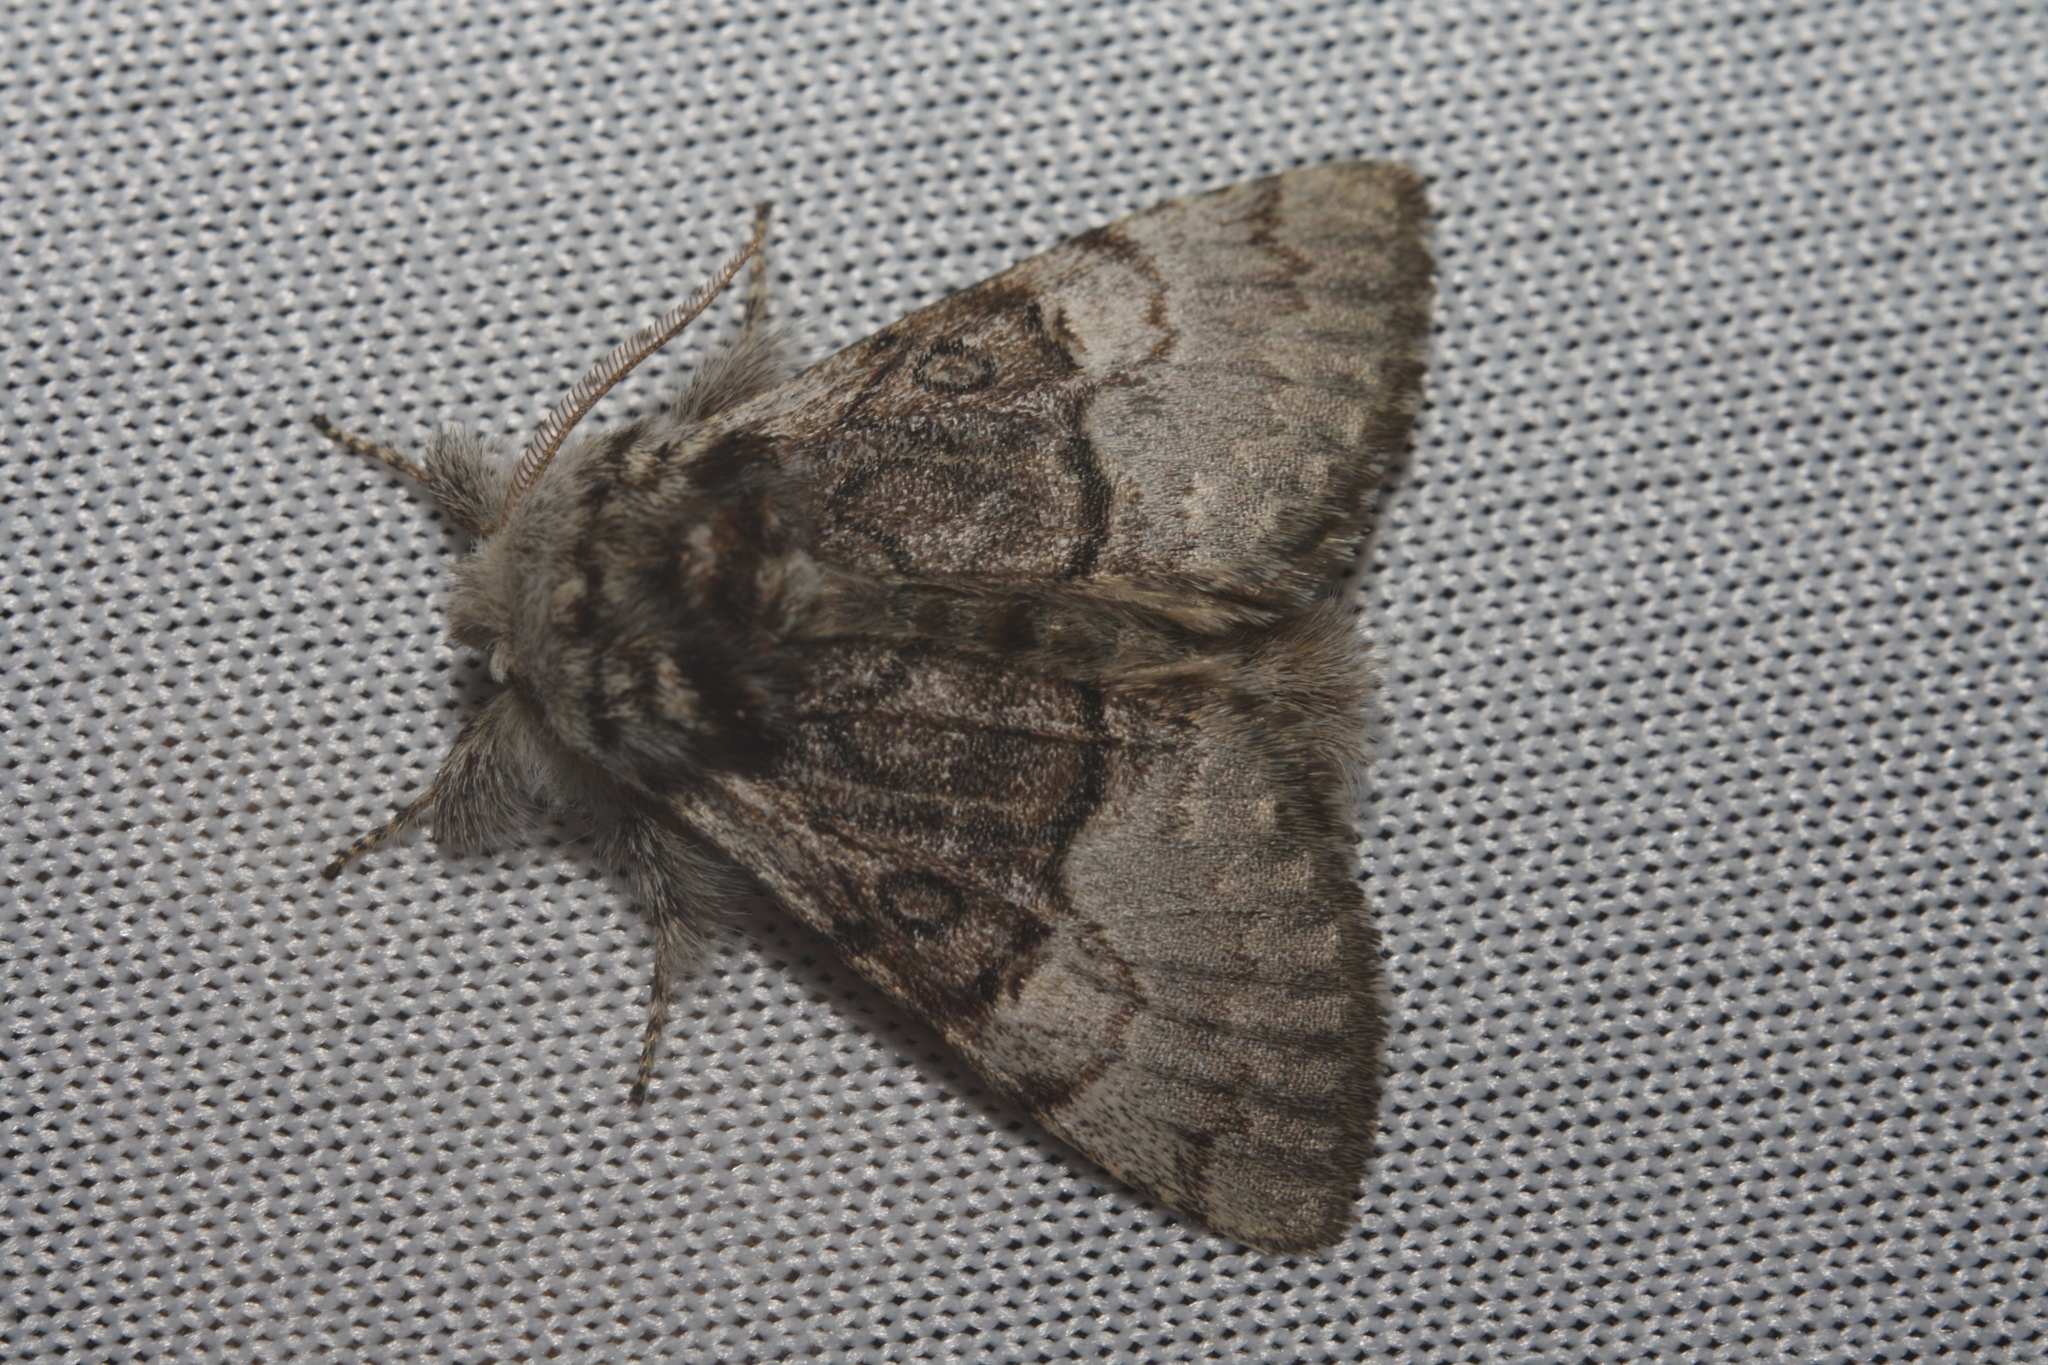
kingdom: Animalia
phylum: Arthropoda
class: Insecta
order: Lepidoptera
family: Noctuidae
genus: Colocasia
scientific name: Colocasia coryli
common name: Nut-tree tussock
